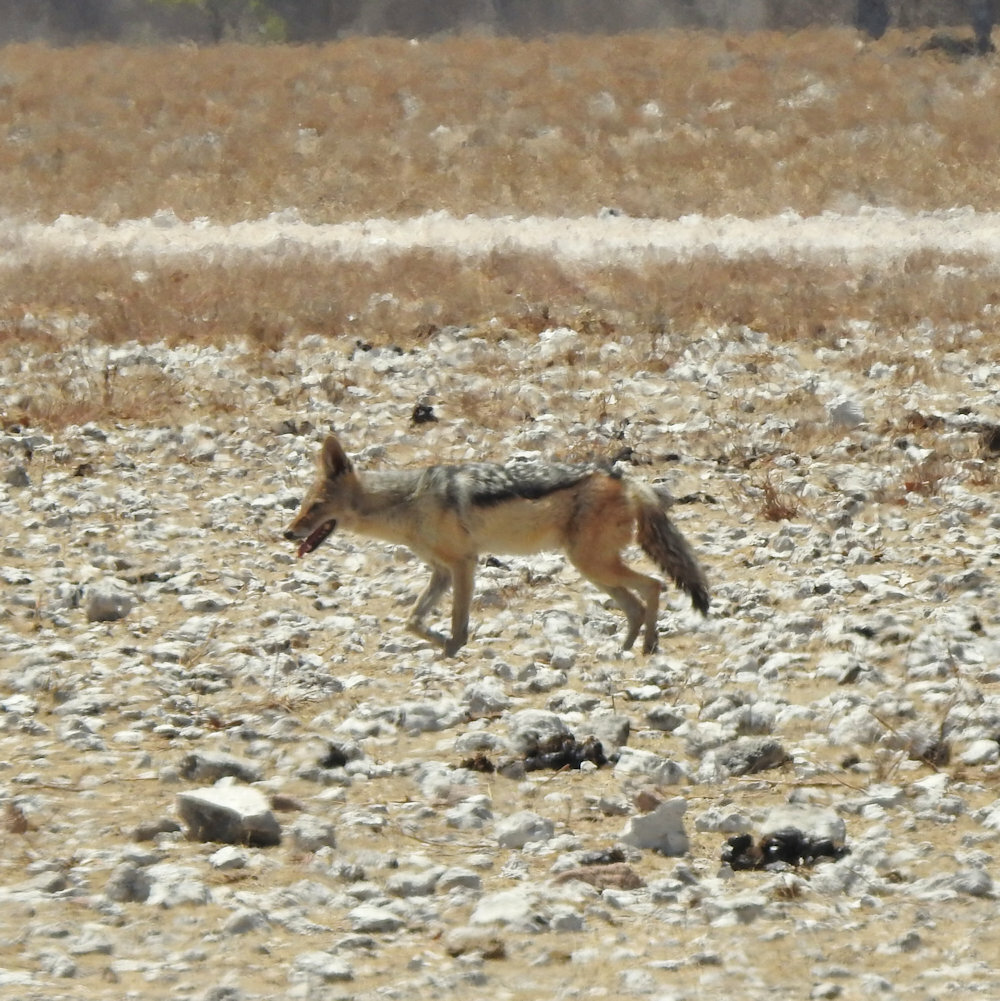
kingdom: Animalia
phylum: Chordata
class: Mammalia
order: Carnivora
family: Canidae
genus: Lupulella
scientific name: Lupulella
